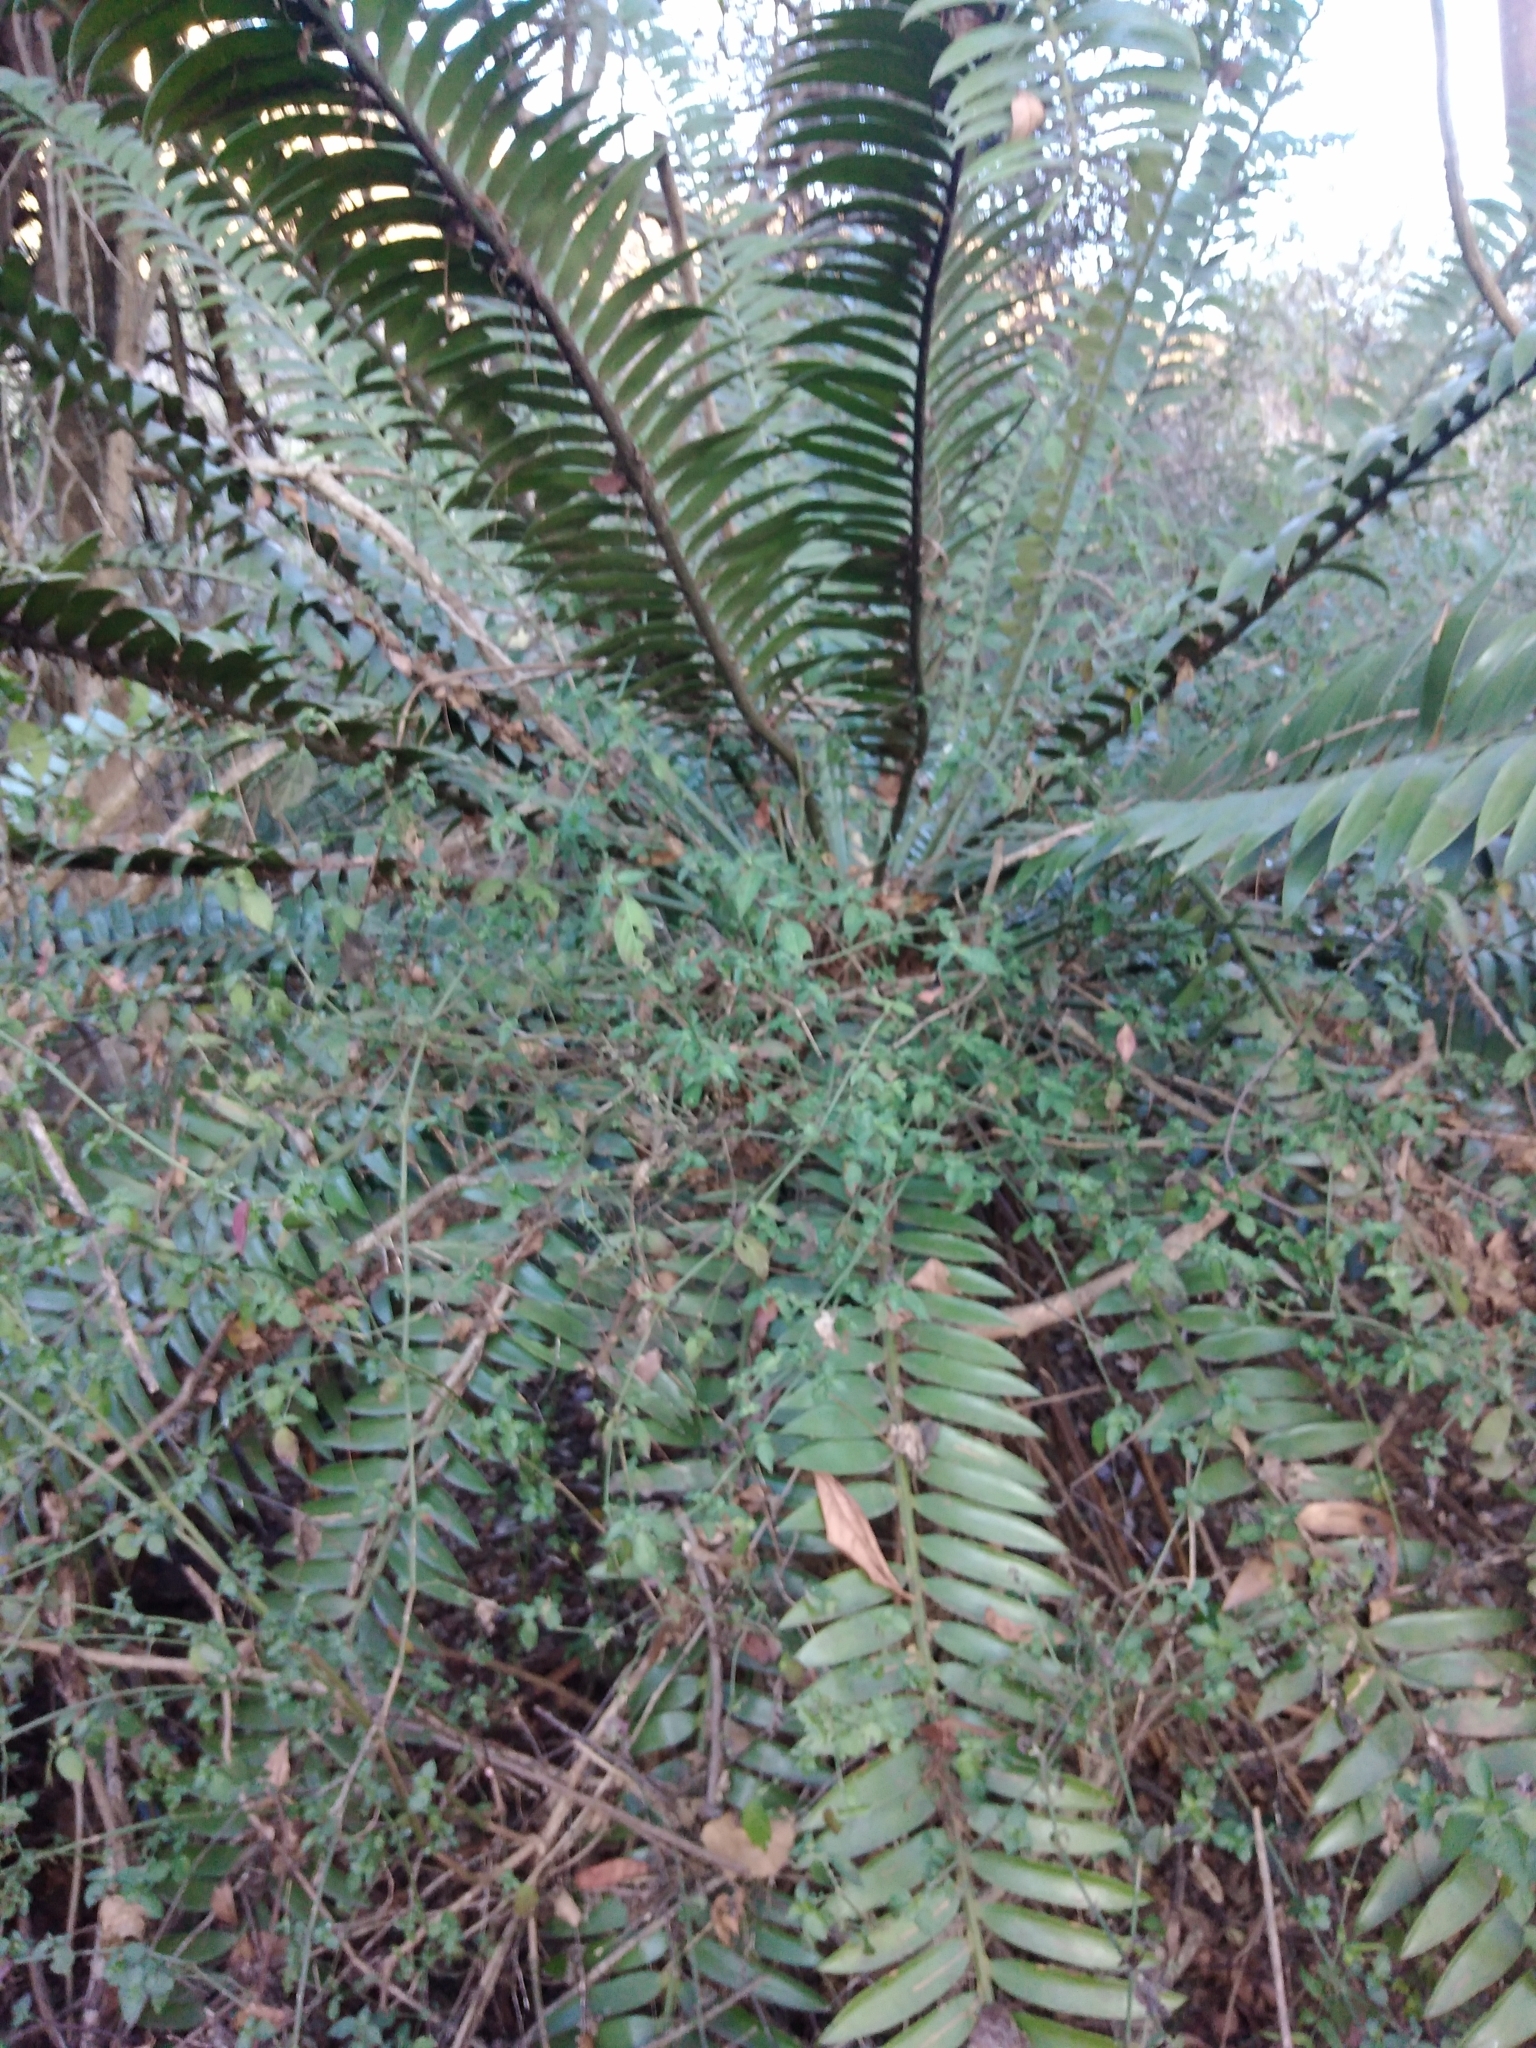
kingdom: Plantae
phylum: Tracheophyta
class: Cycadopsida
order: Cycadales
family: Zamiaceae
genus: Encephalartos
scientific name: Encephalartos natalensis
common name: Natal cycad
